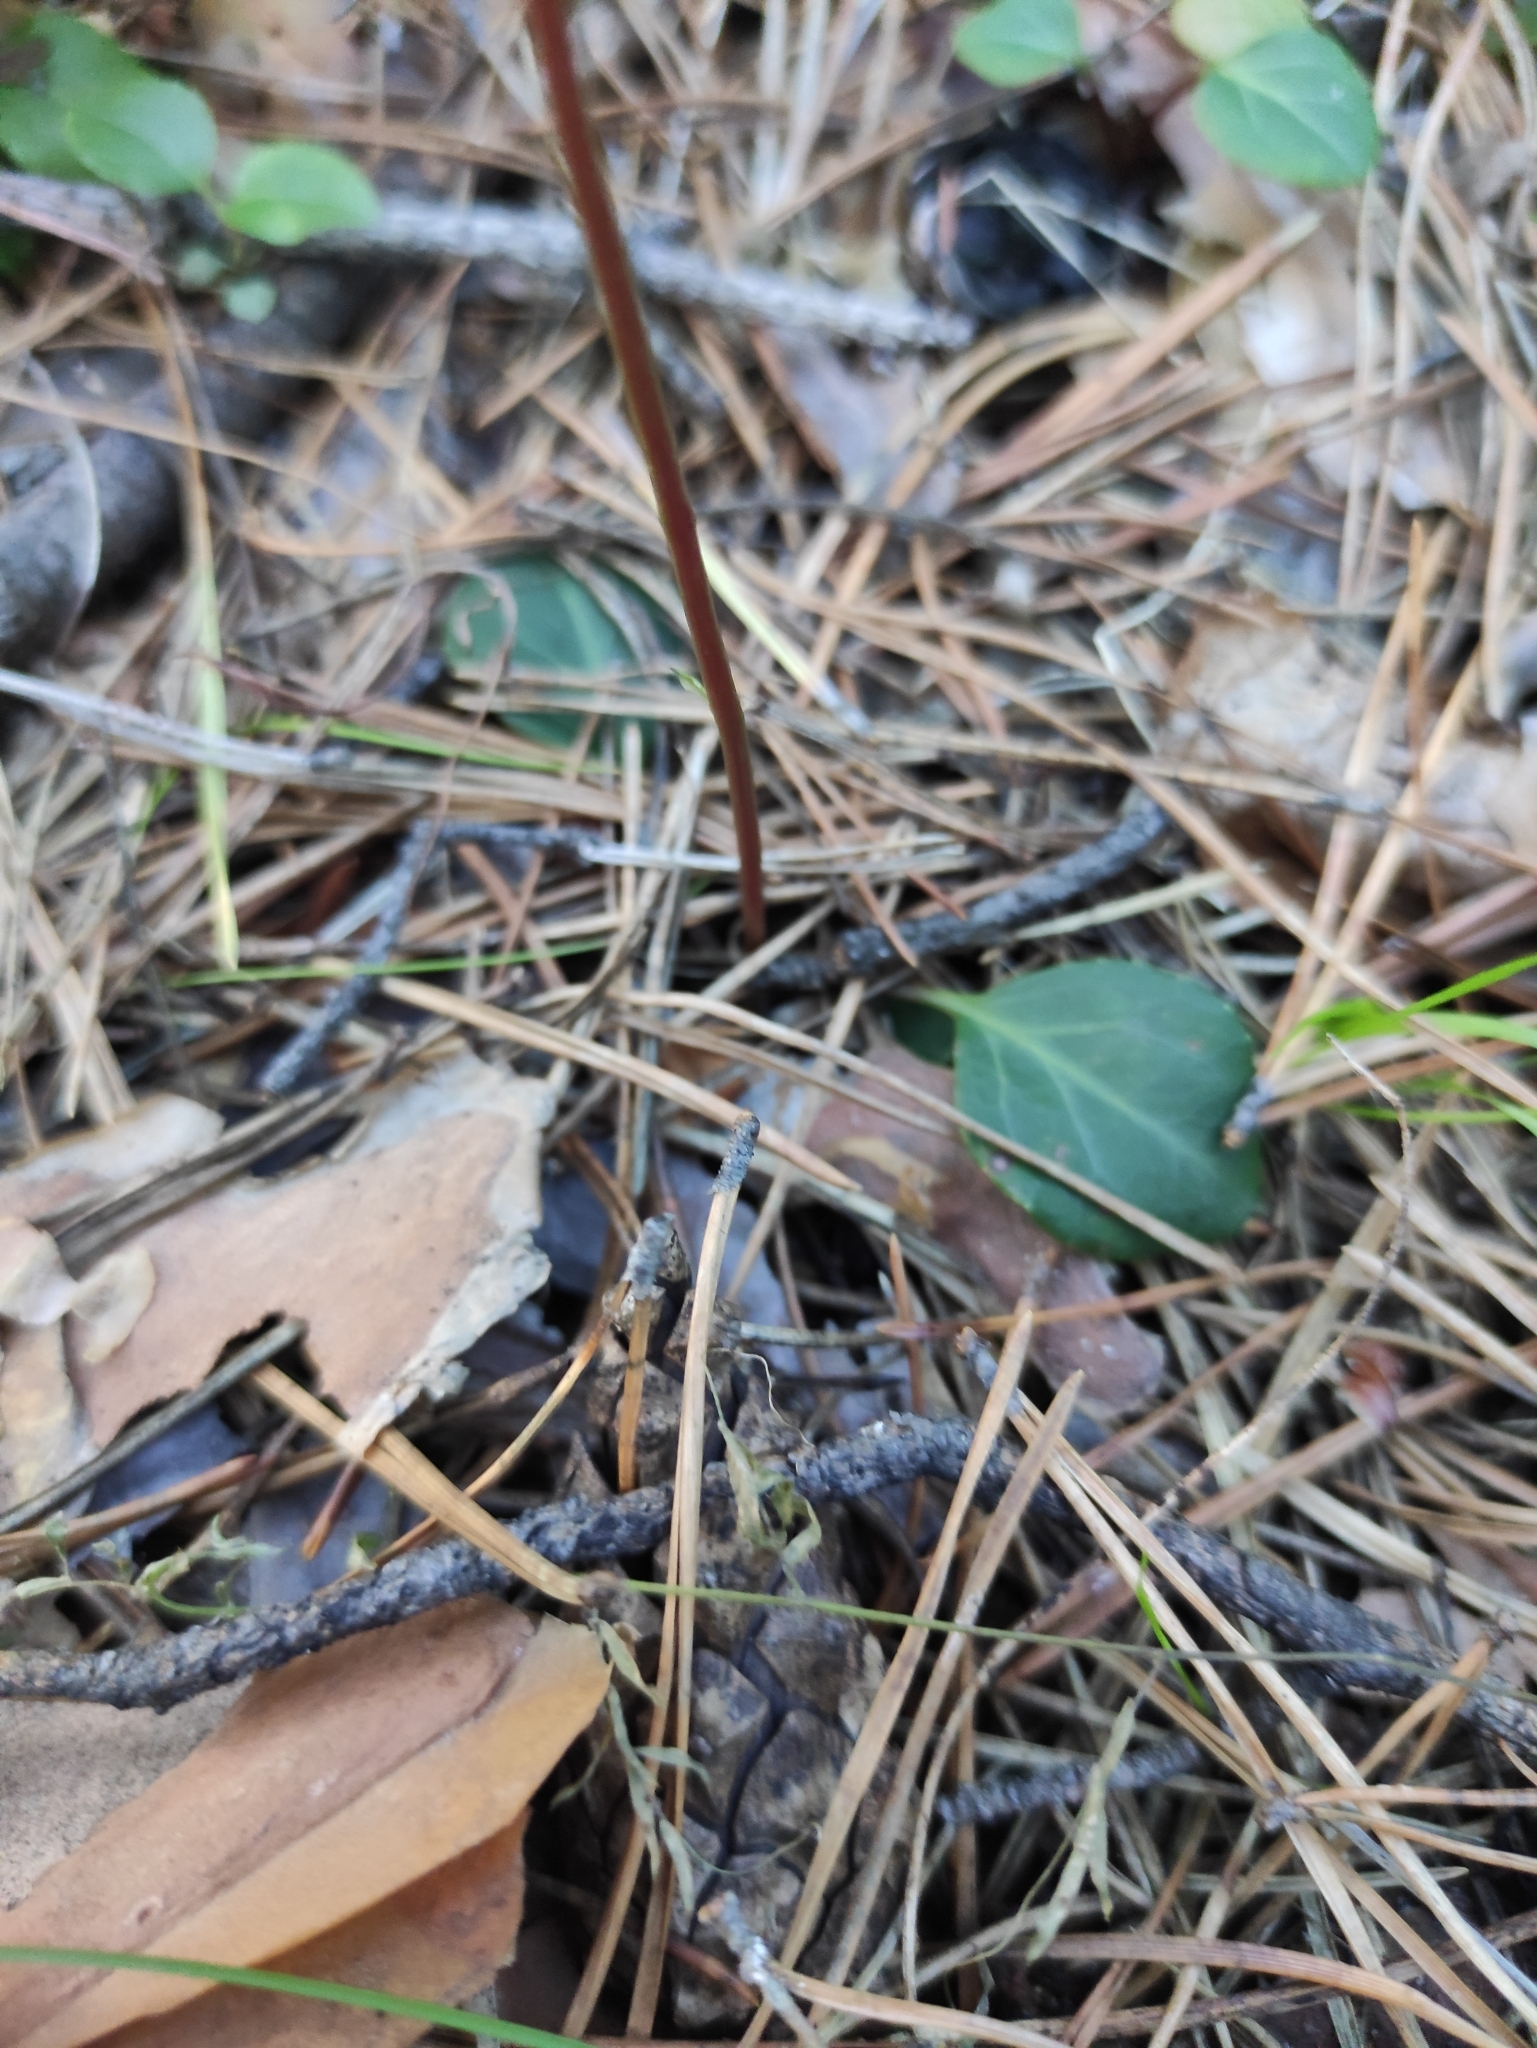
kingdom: Plantae
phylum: Tracheophyta
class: Magnoliopsida
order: Ericales
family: Ericaceae
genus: Pyrola
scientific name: Pyrola chlorantha
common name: Green wintergreen
